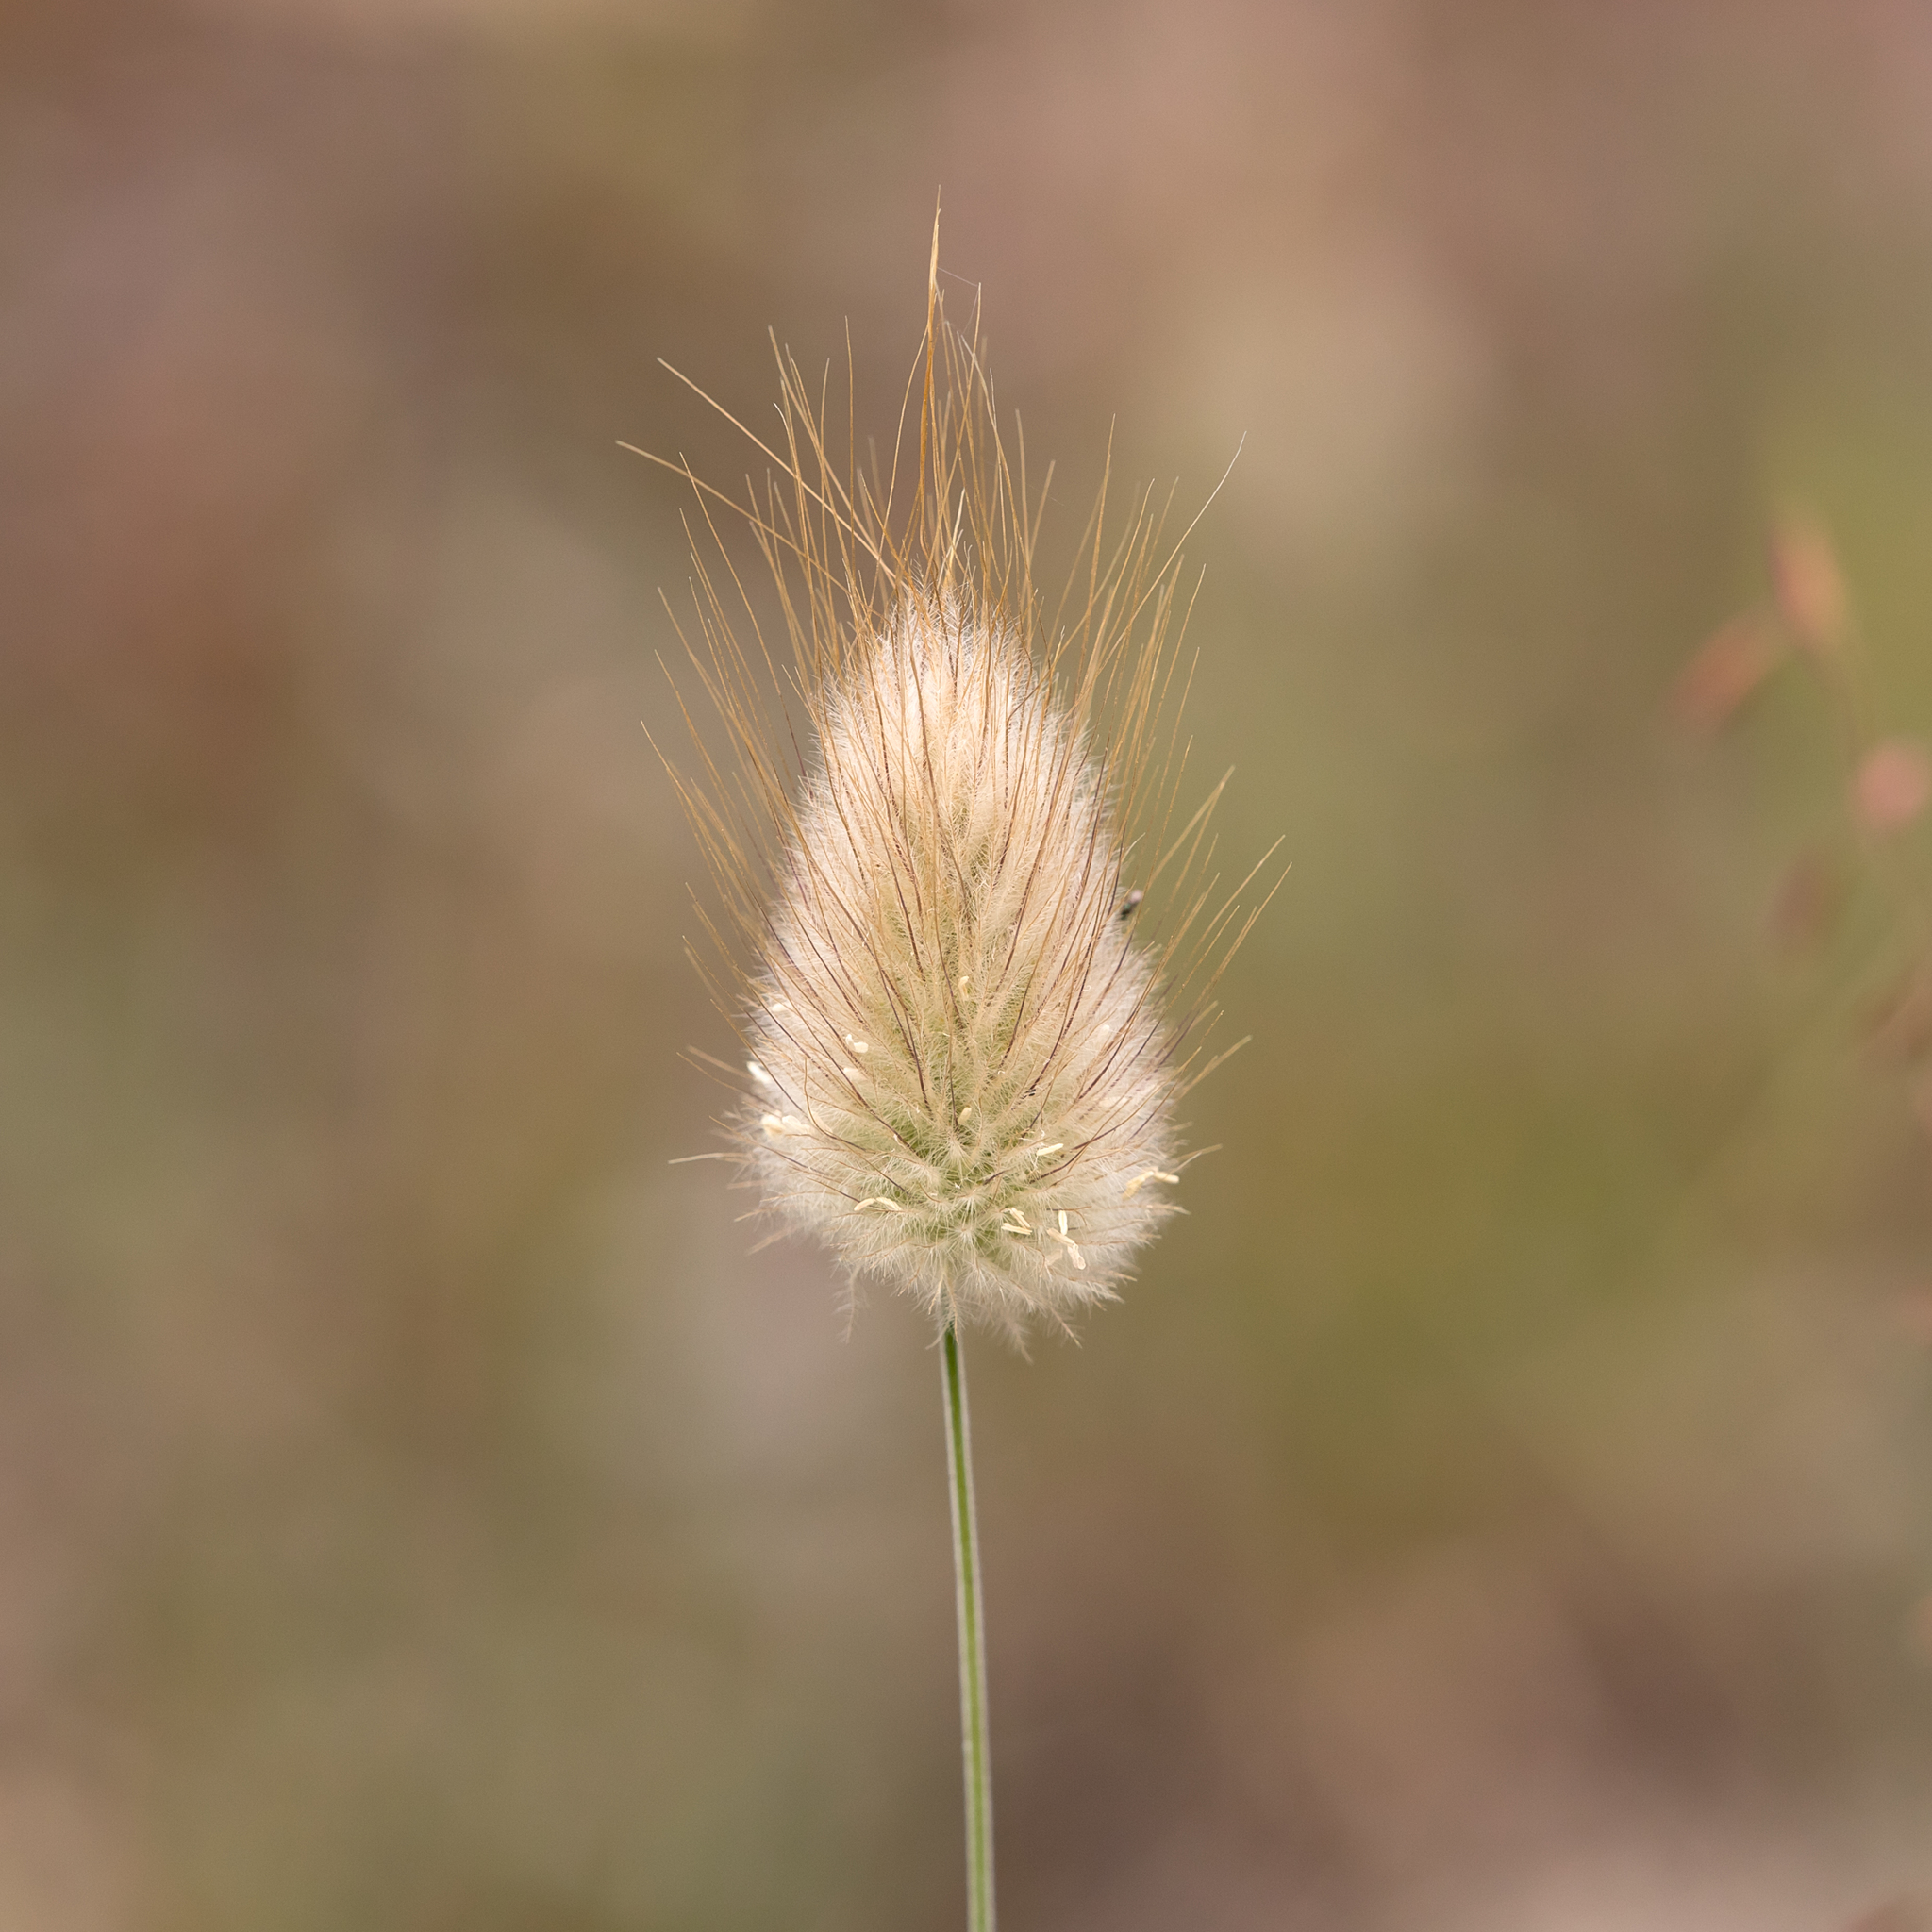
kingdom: Plantae
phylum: Tracheophyta
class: Liliopsida
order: Poales
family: Poaceae
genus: Lagurus
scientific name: Lagurus ovatus
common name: Hare's-tail
